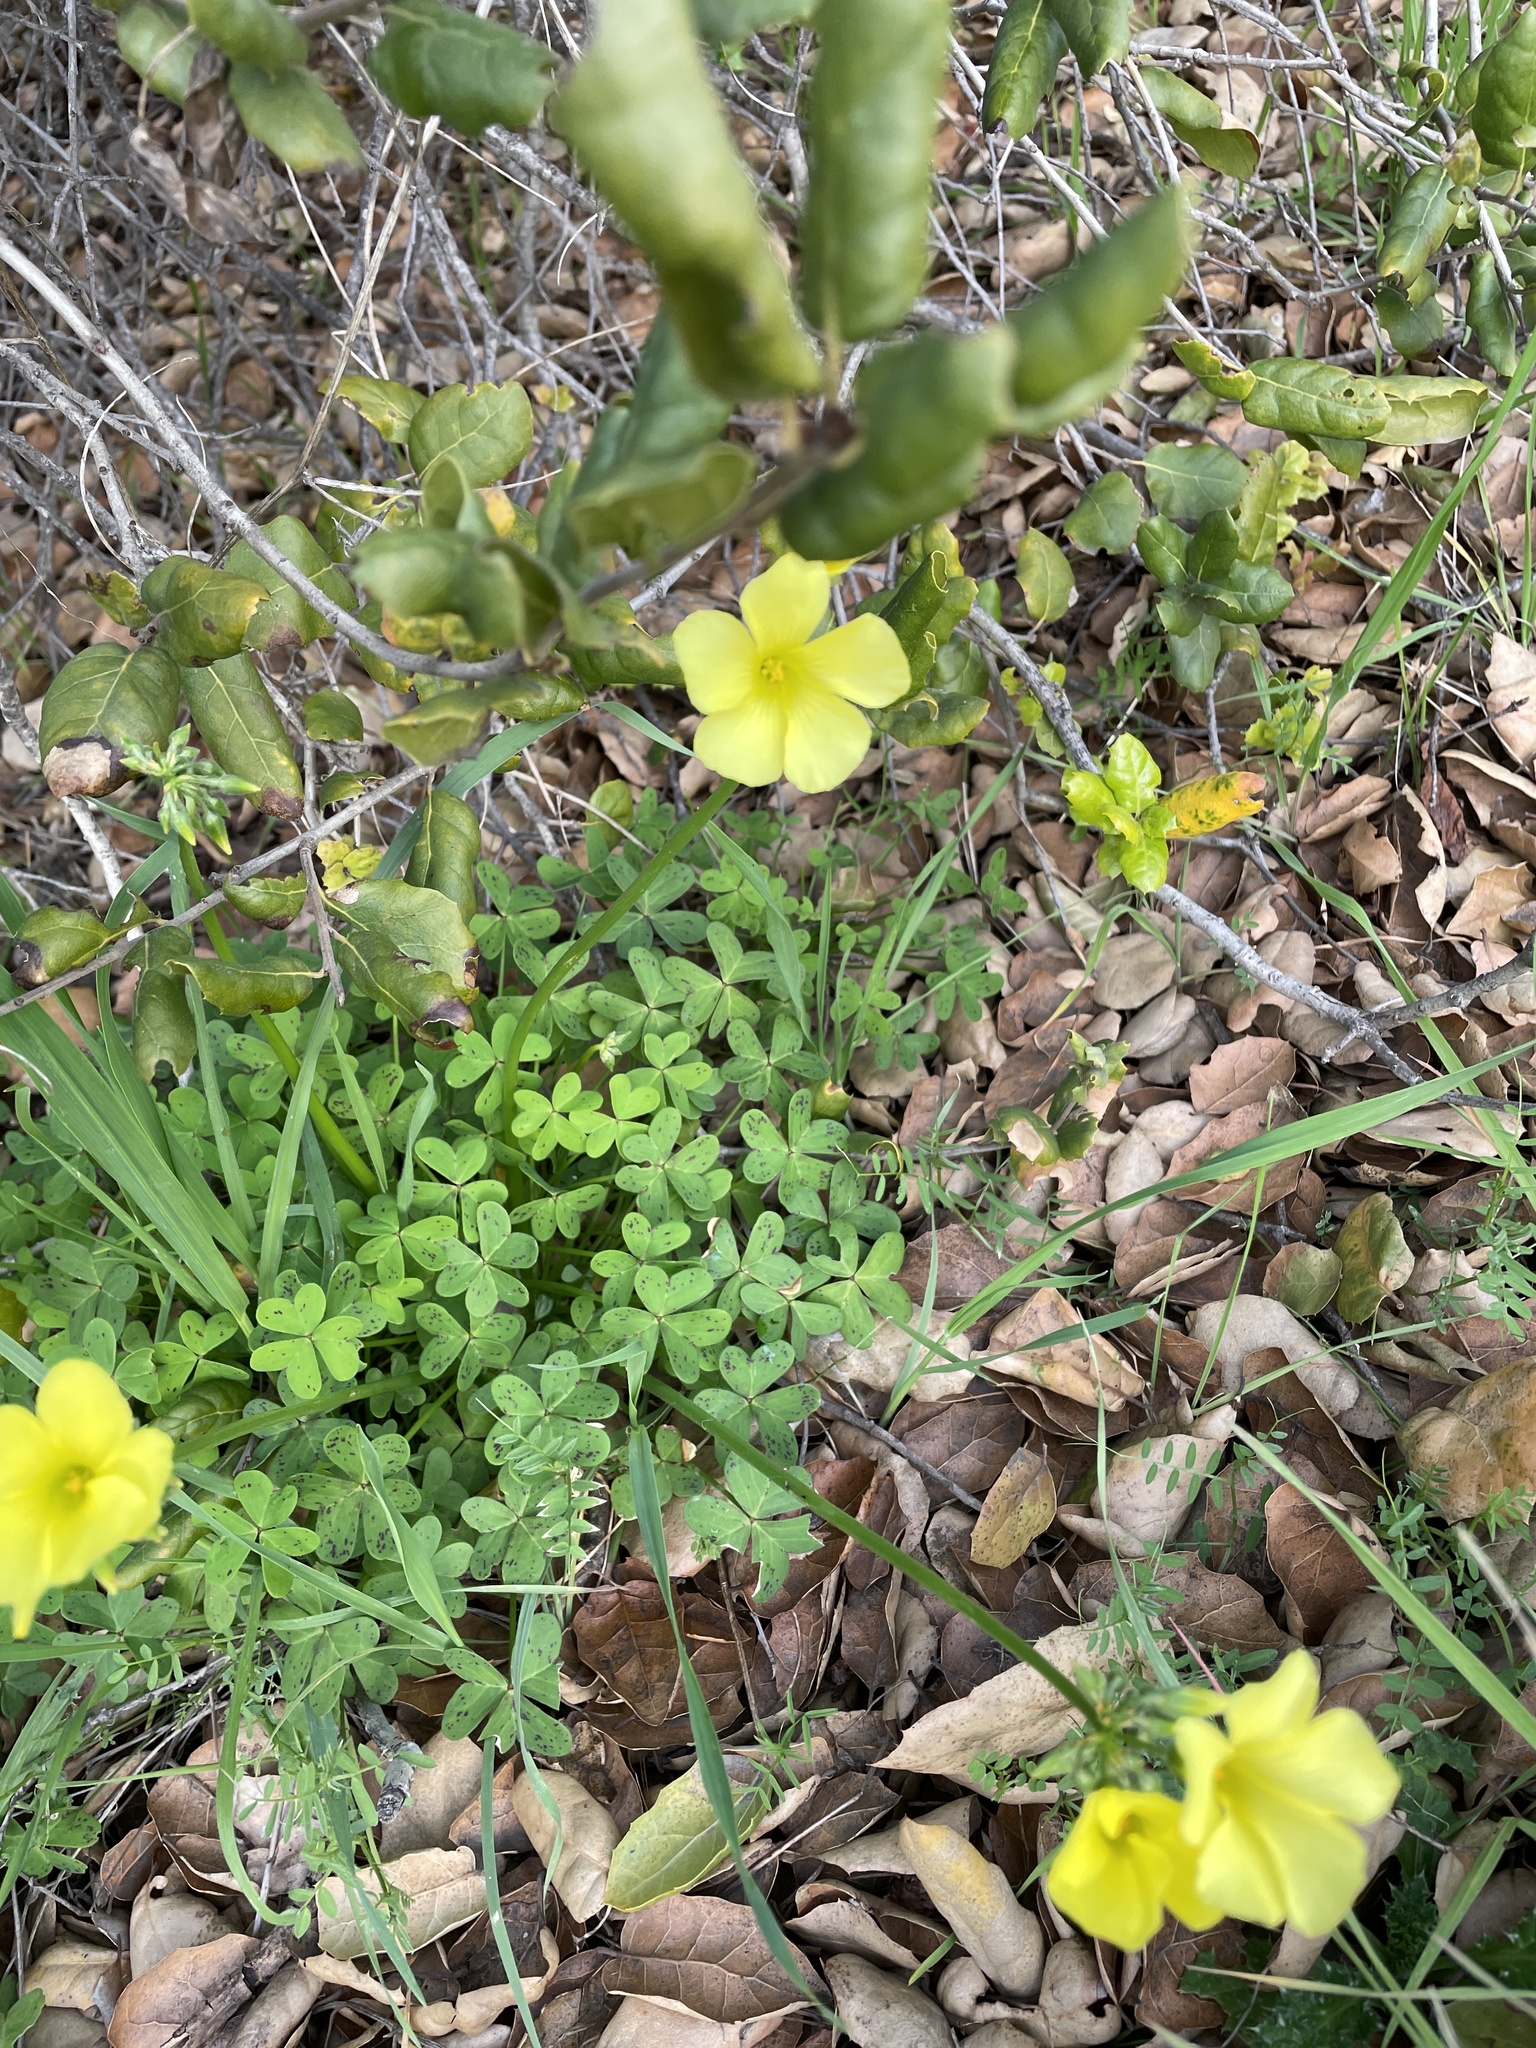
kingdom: Plantae
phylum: Tracheophyta
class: Magnoliopsida
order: Oxalidales
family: Oxalidaceae
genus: Oxalis
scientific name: Oxalis pes-caprae
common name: Bermuda-buttercup
